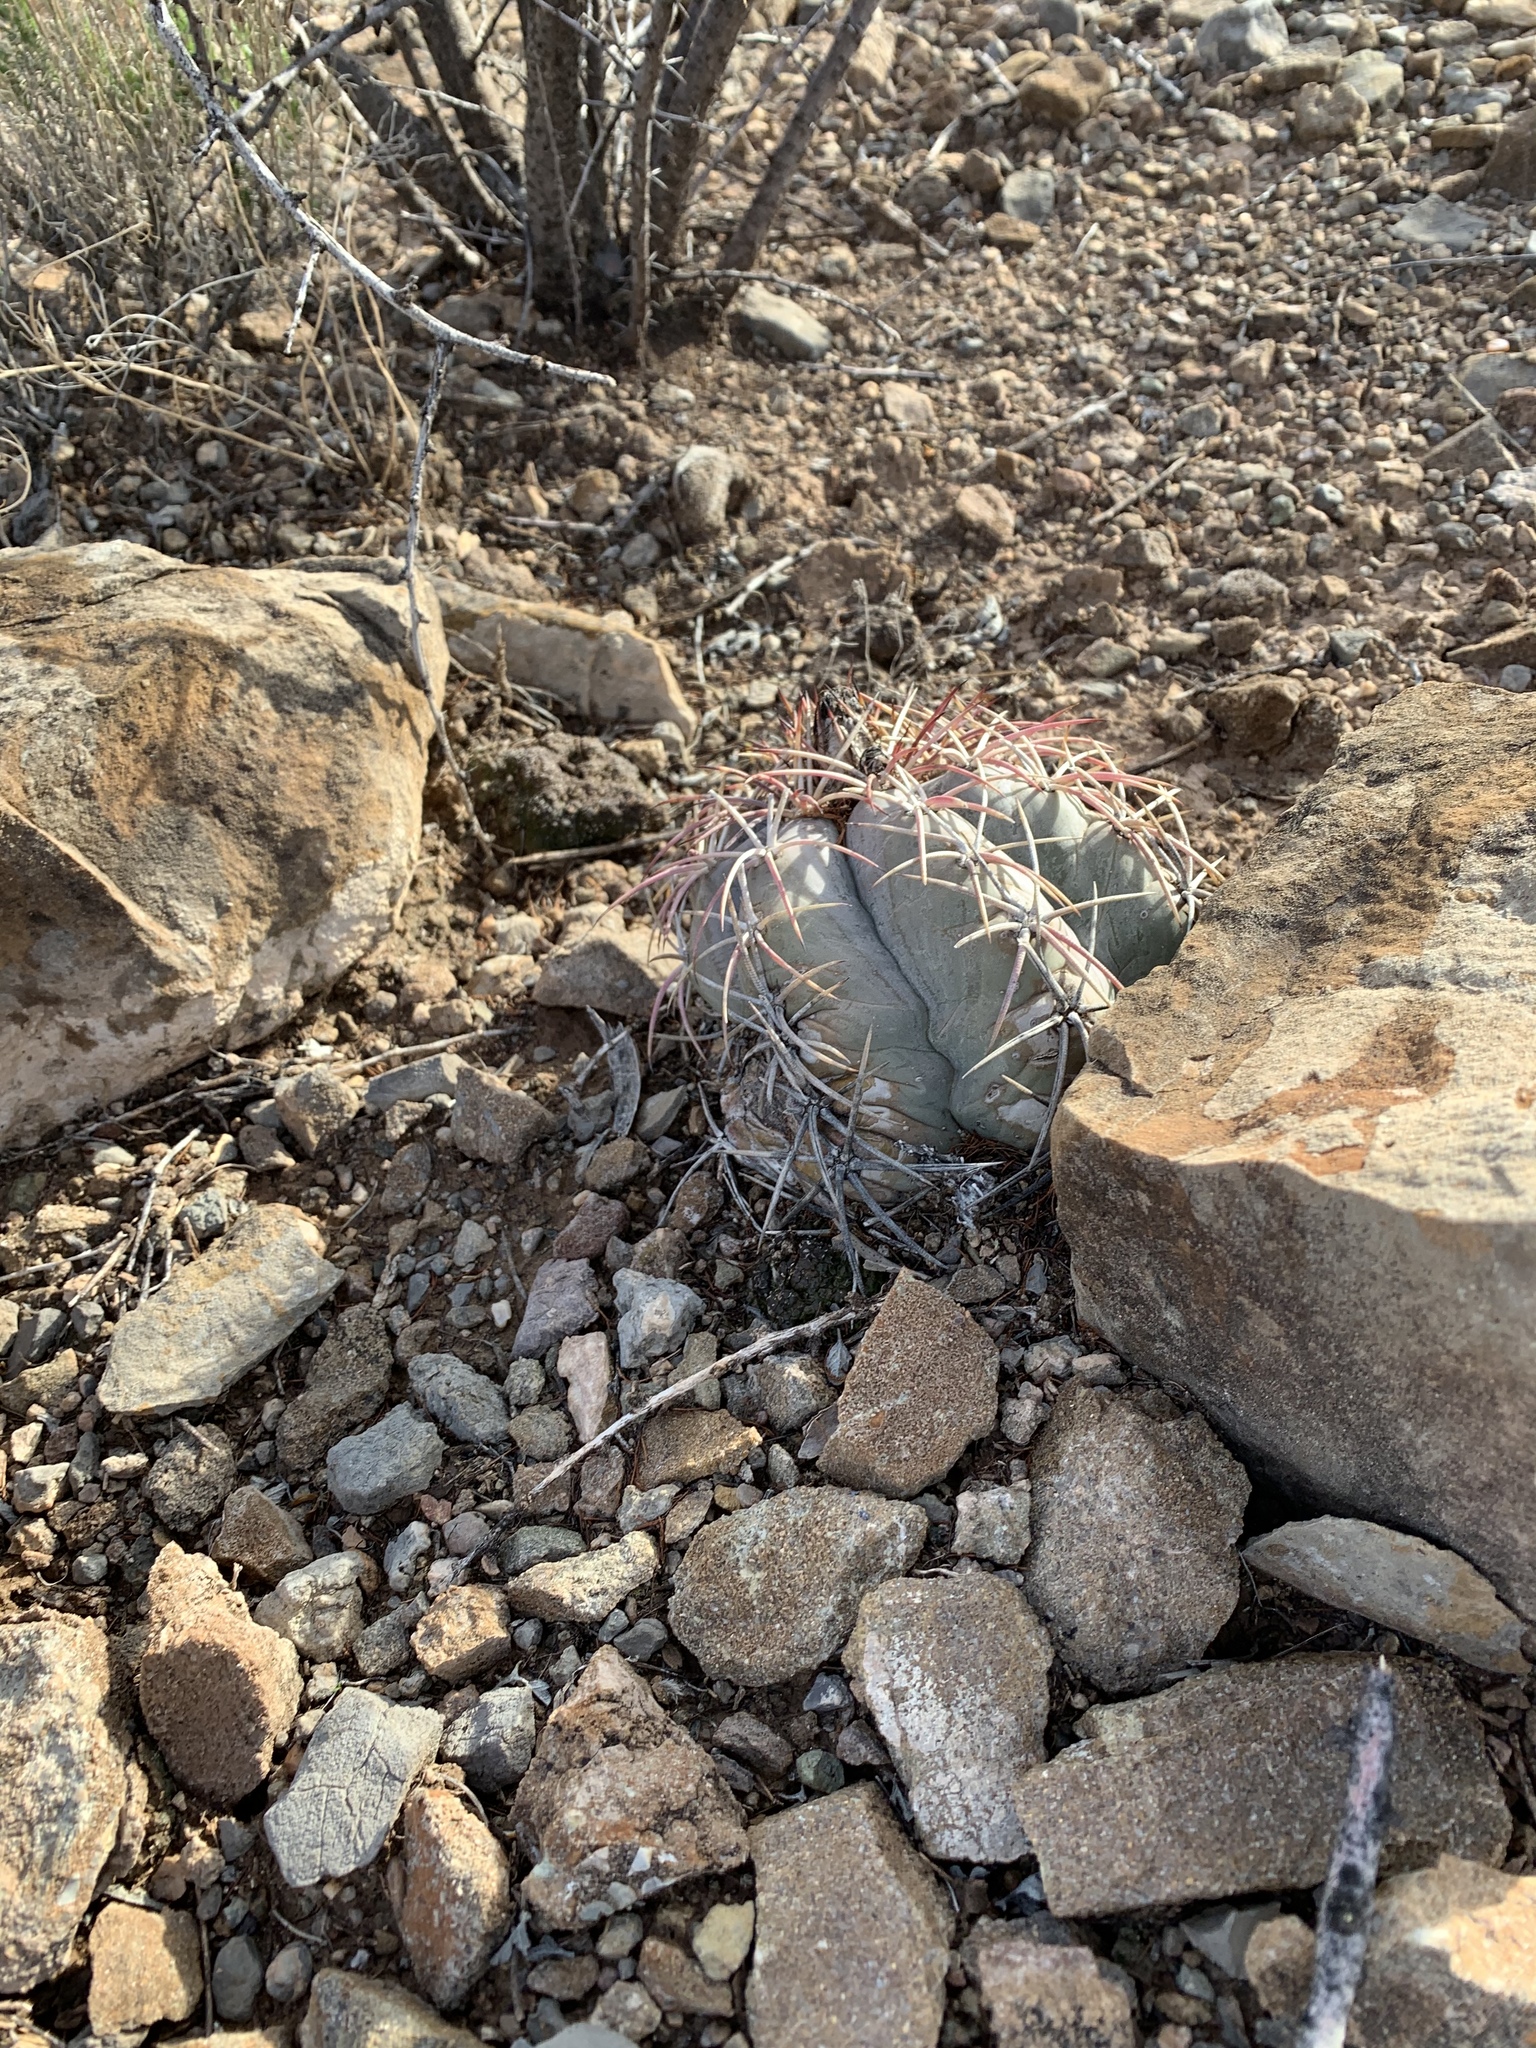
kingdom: Plantae
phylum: Tracheophyta
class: Magnoliopsida
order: Caryophyllales
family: Cactaceae
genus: Echinocactus
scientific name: Echinocactus horizonthalonius
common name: Devilshead
